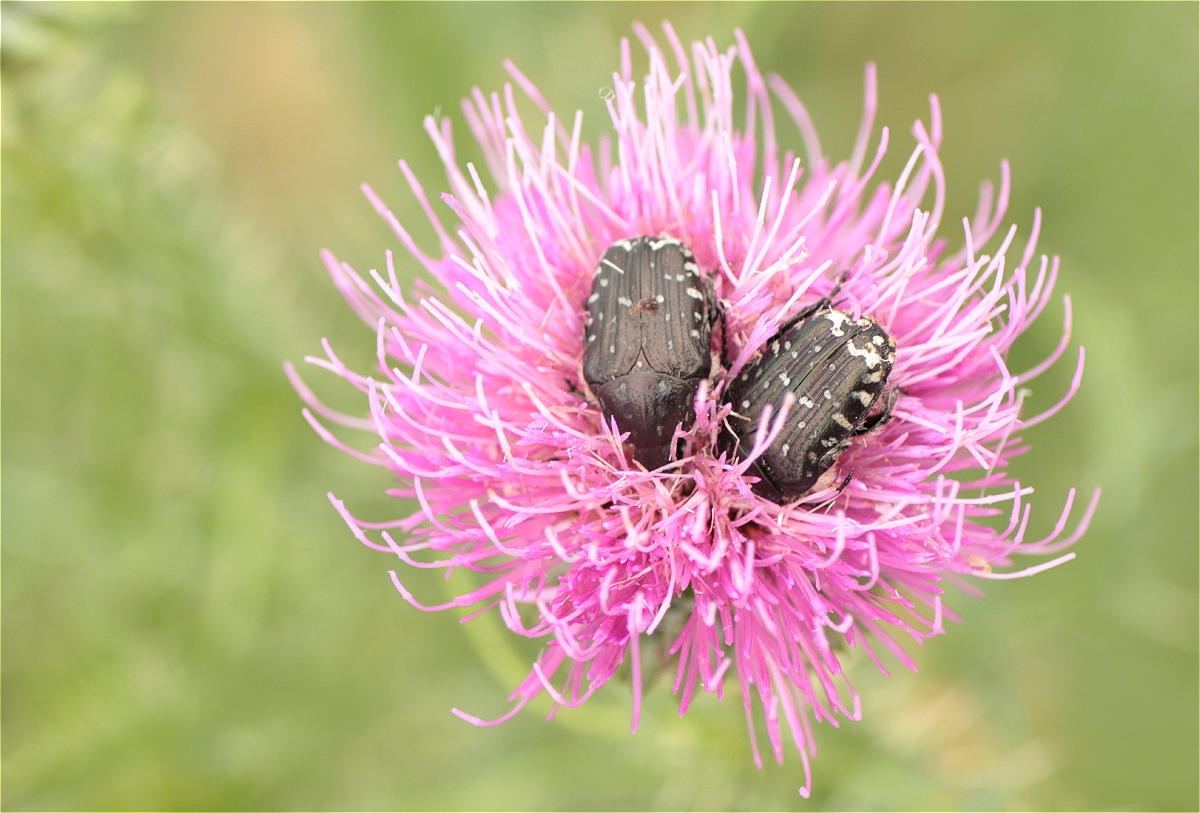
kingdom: Animalia
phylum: Arthropoda
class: Insecta
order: Coleoptera
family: Scarabaeidae
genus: Oxythyrea
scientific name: Oxythyrea funesta
